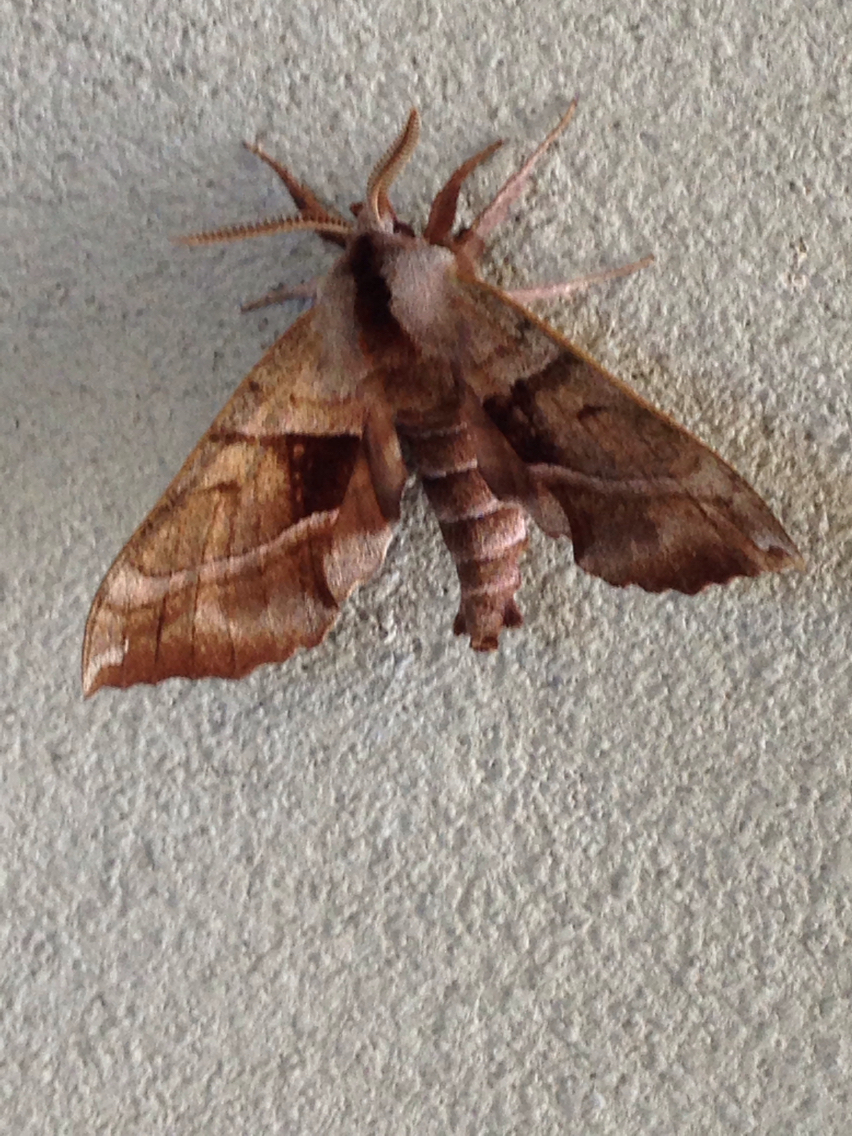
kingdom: Animalia
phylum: Arthropoda
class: Insecta
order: Lepidoptera
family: Sphingidae
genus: Amorpha
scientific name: Amorpha juglandis
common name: Walnut sphinx
